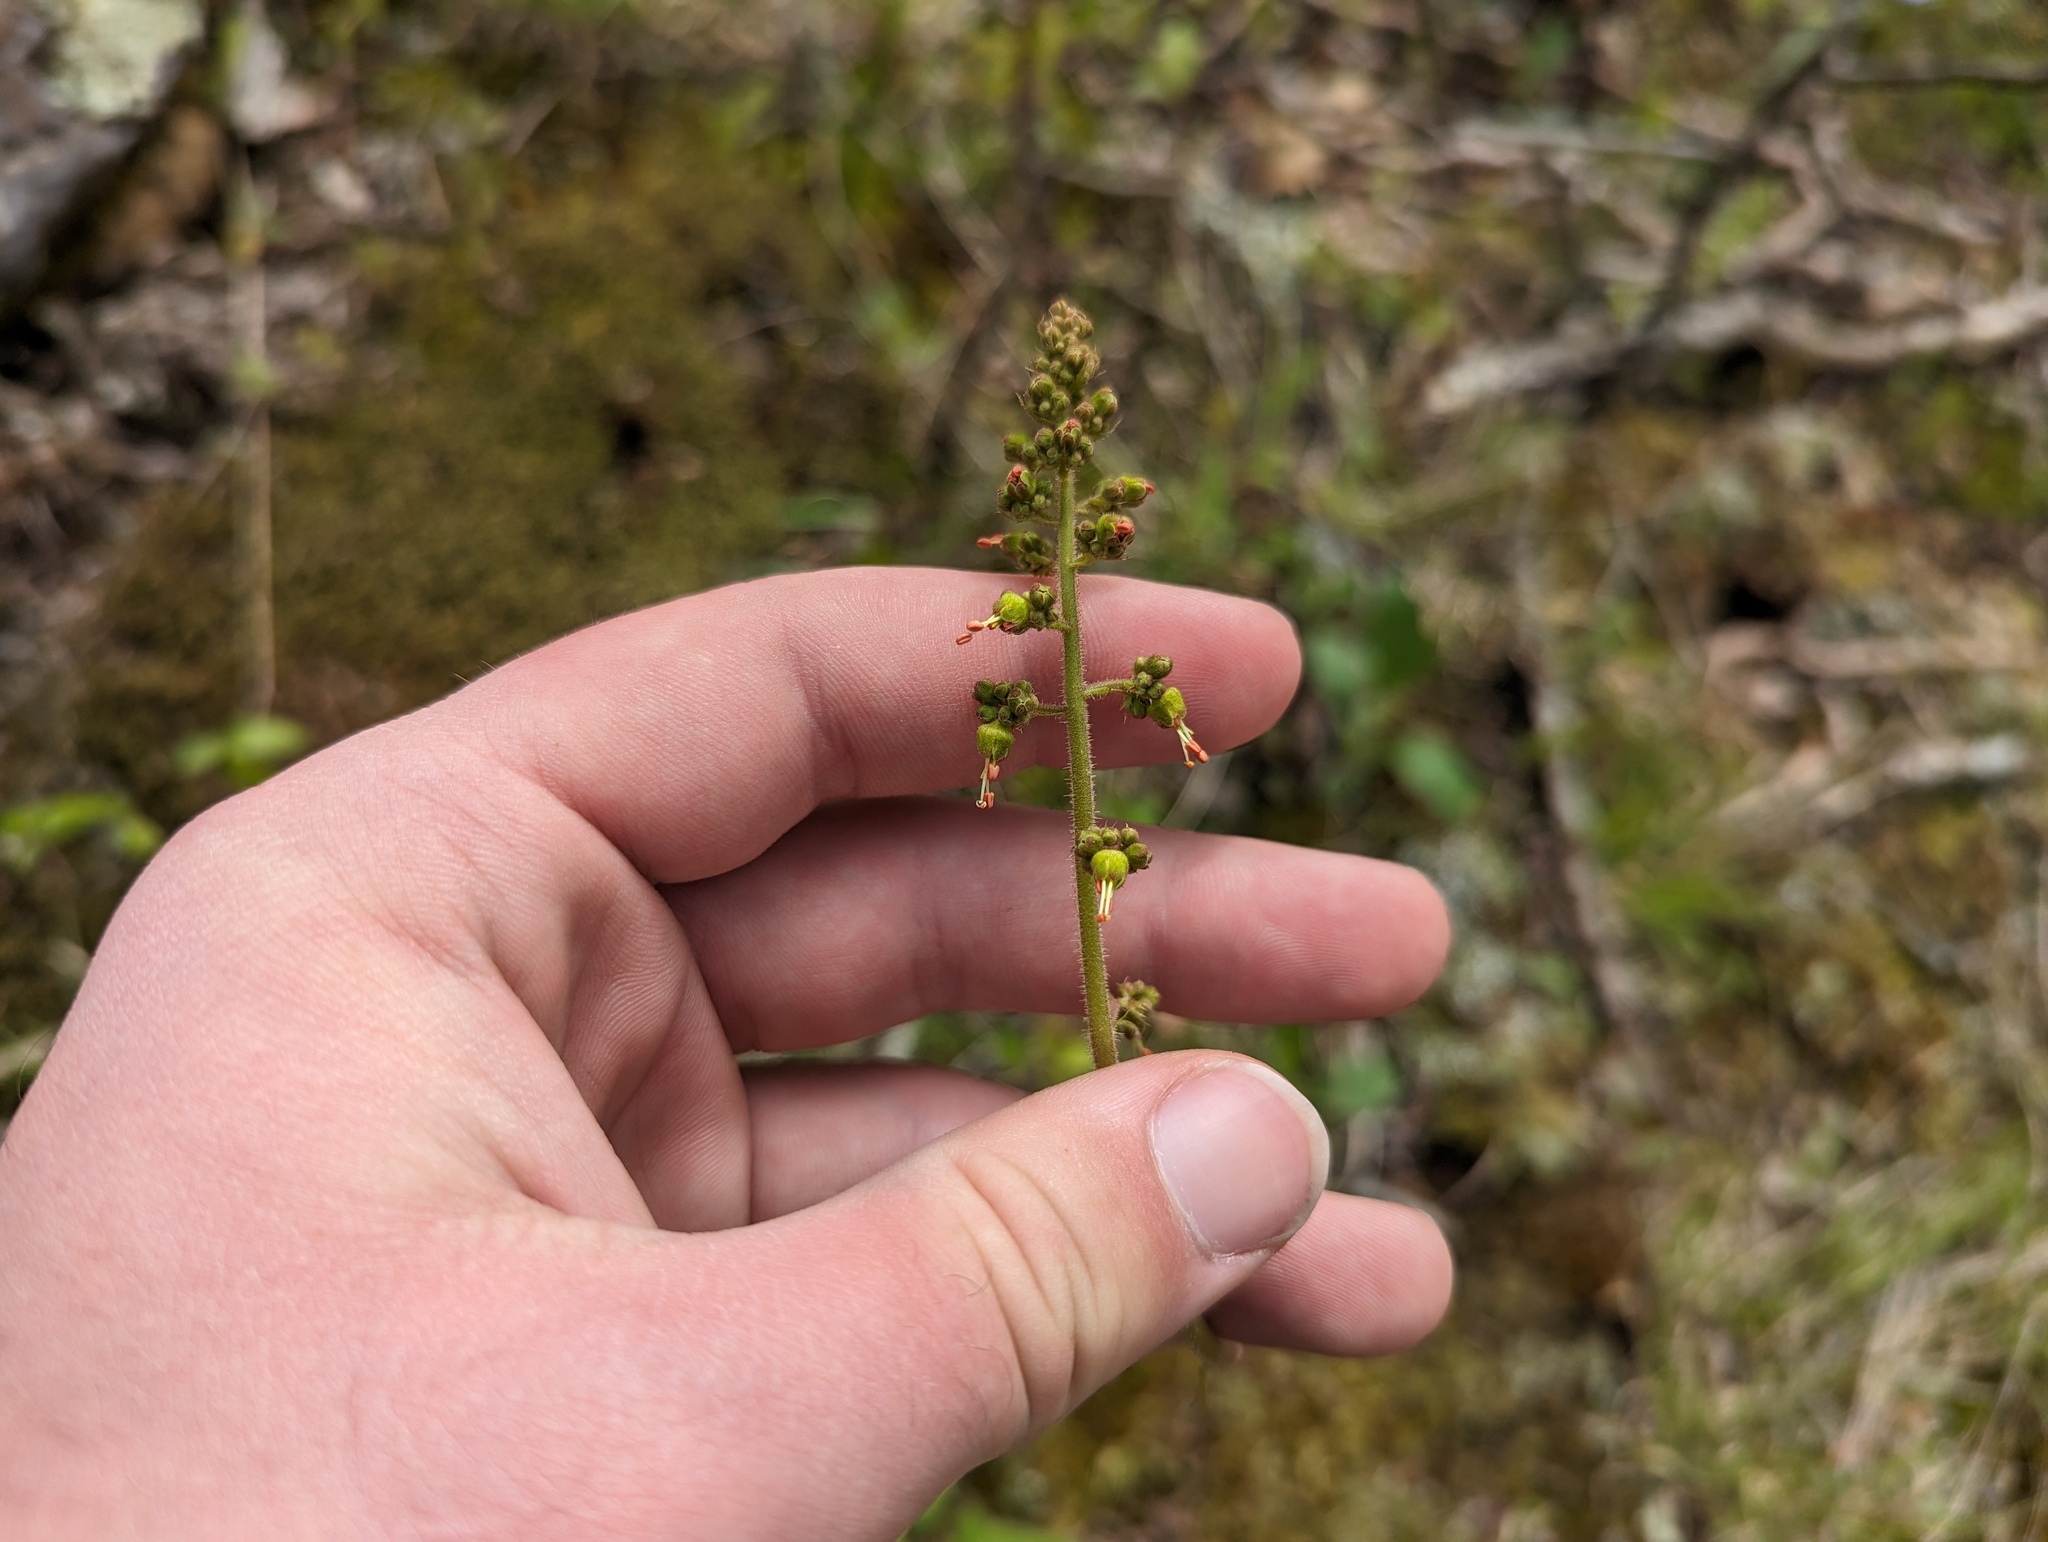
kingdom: Plantae
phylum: Tracheophyta
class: Magnoliopsida
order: Saxifragales
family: Saxifragaceae
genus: Heuchera
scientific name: Heuchera americana
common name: Alumroot
